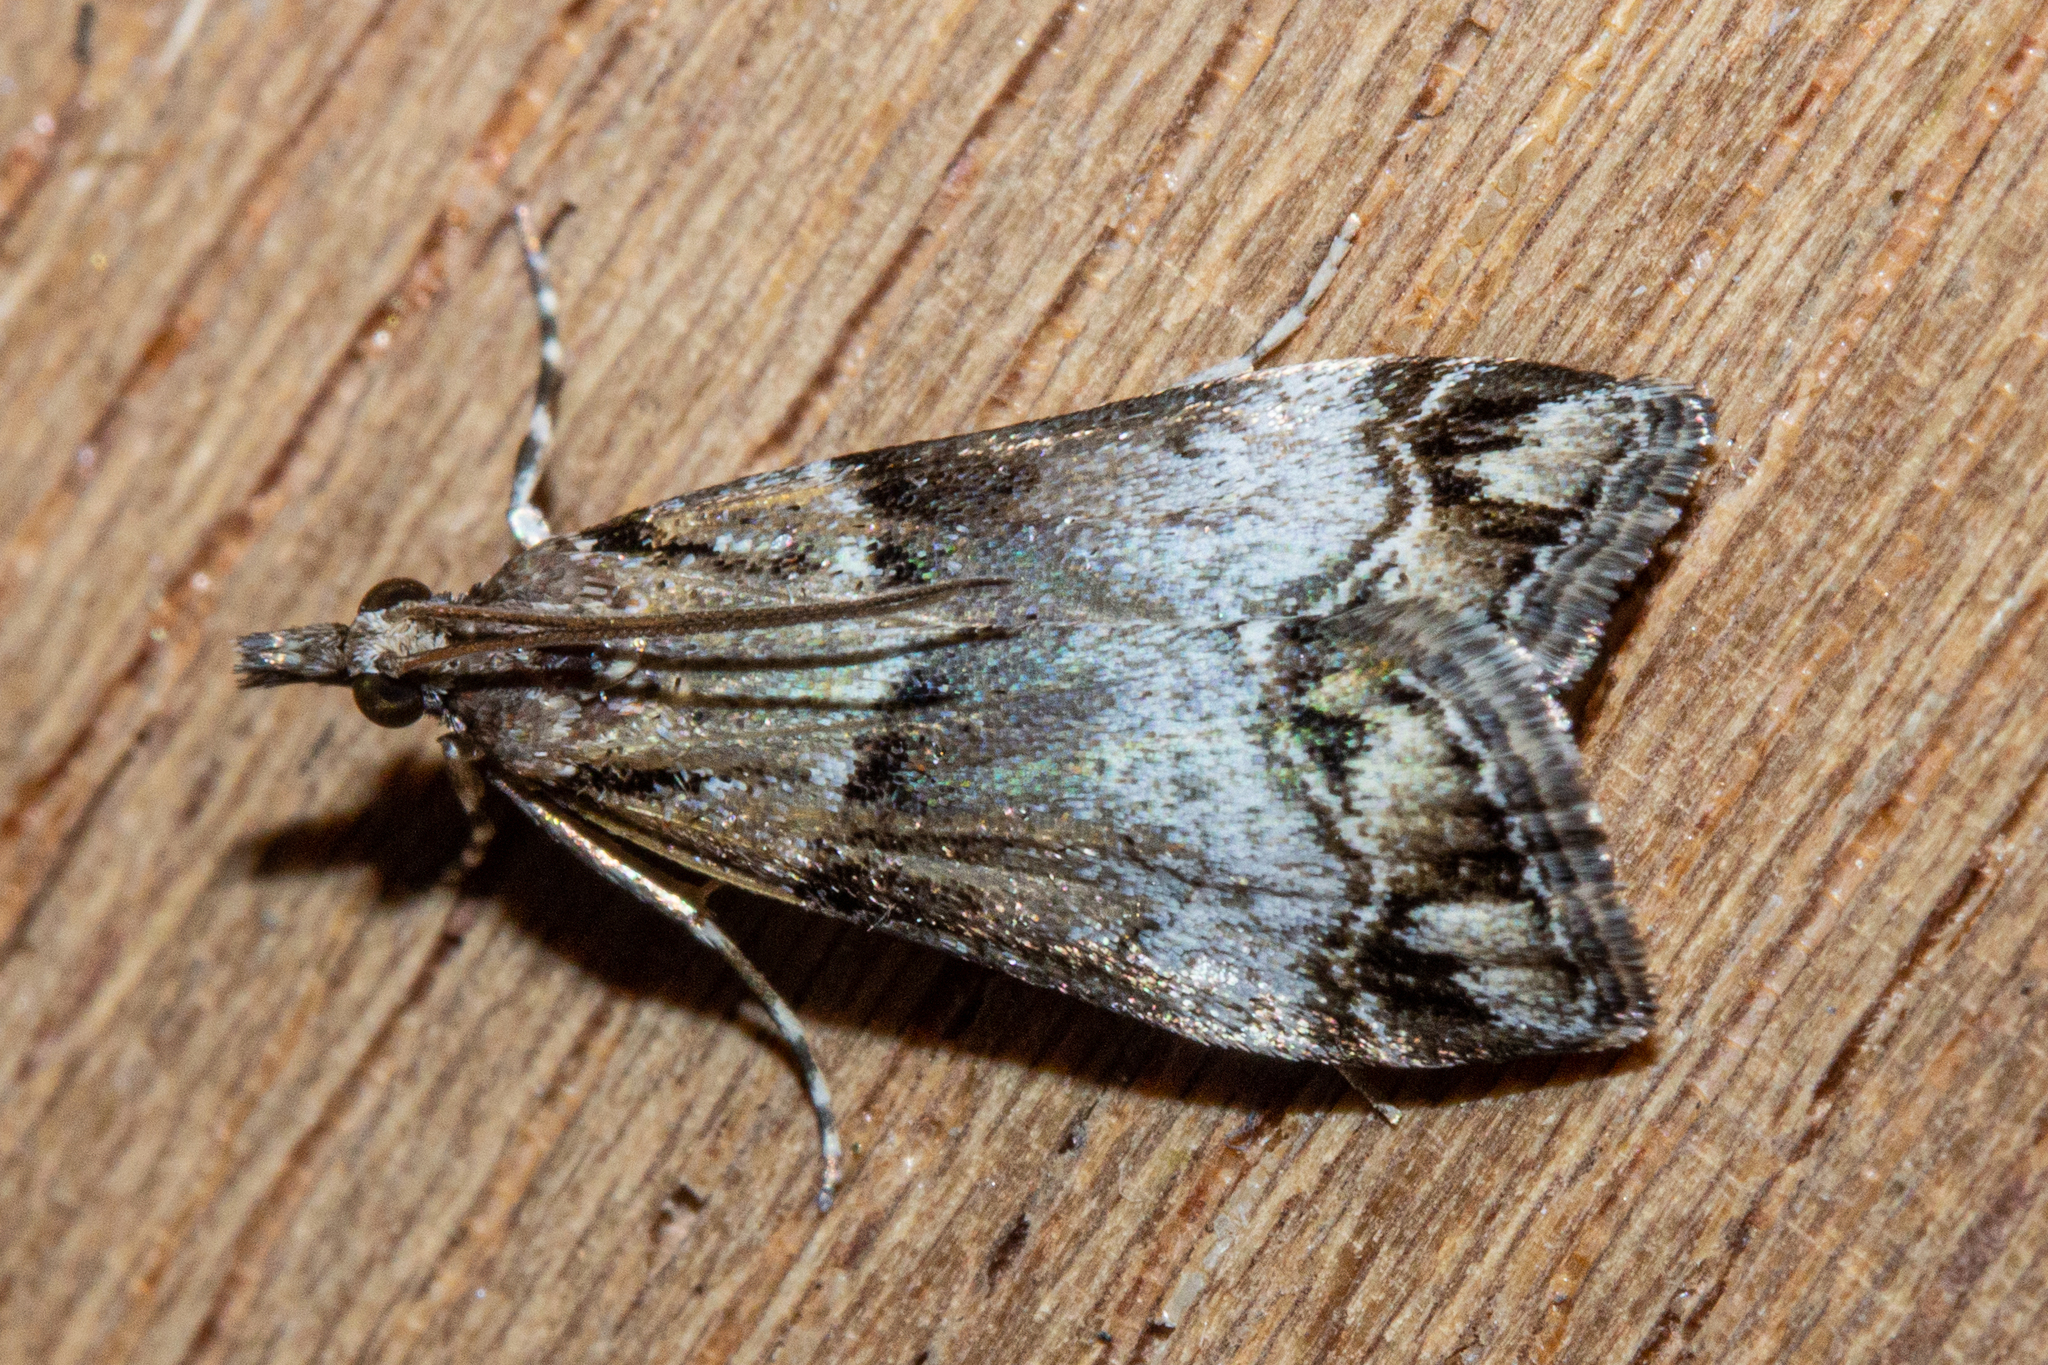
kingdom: Animalia
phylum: Arthropoda
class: Insecta
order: Lepidoptera
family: Crambidae
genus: Eudonia
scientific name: Eudonia periphanes
